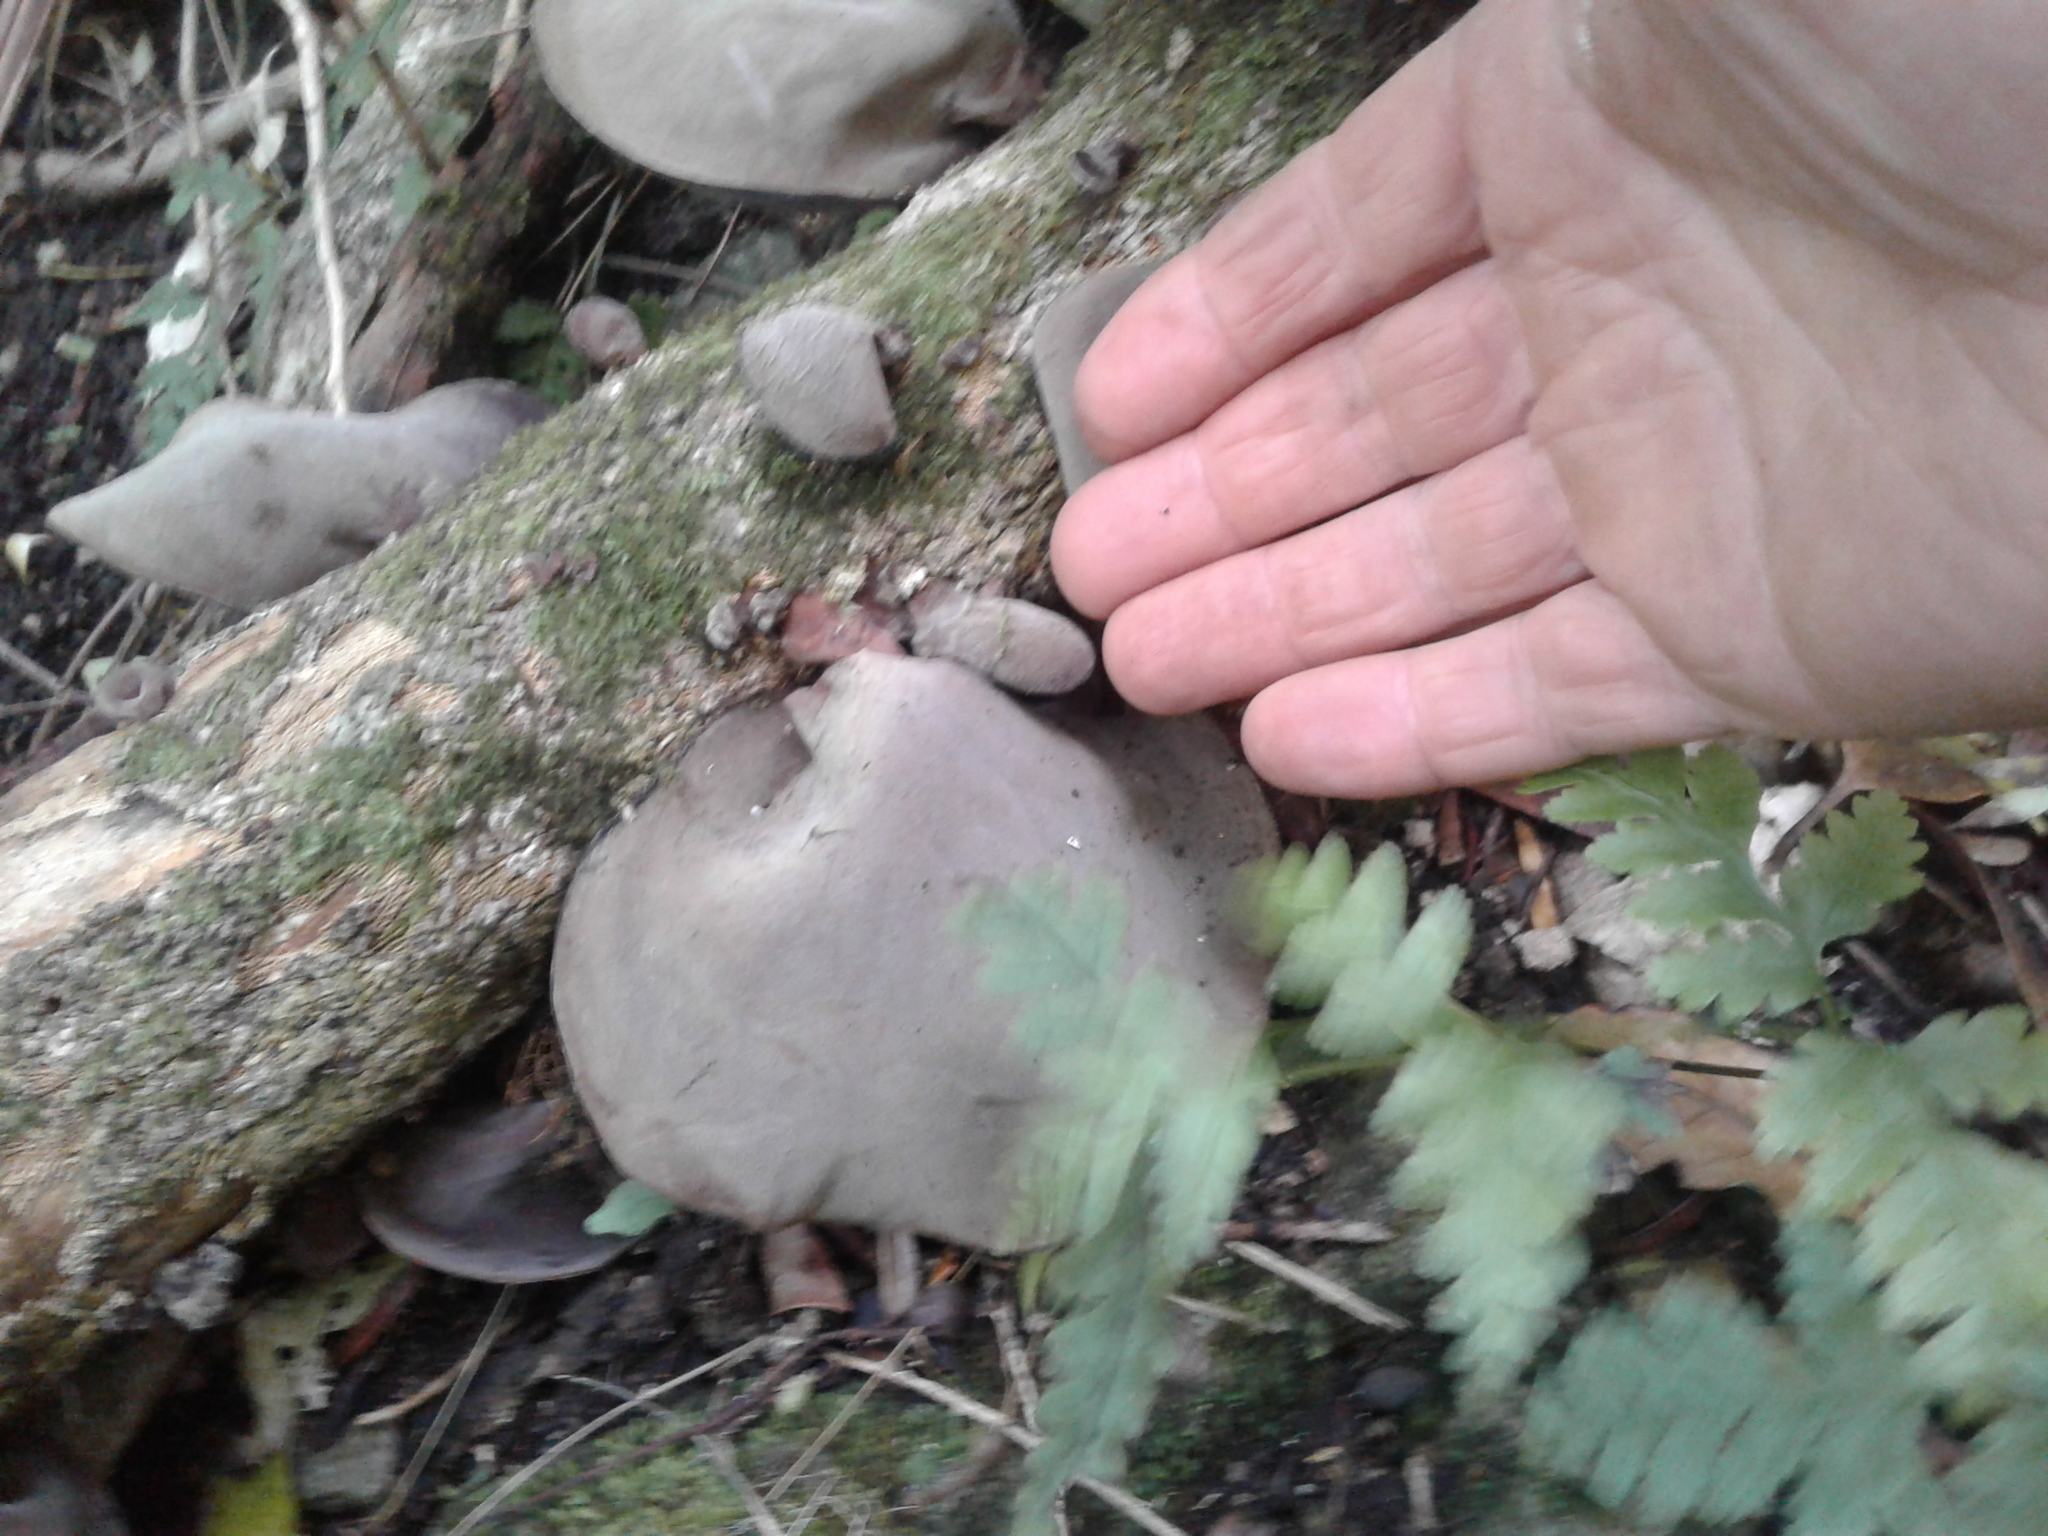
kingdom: Fungi
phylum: Basidiomycota
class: Agaricomycetes
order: Auriculariales
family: Auriculariaceae
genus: Auricularia
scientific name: Auricularia cornea
